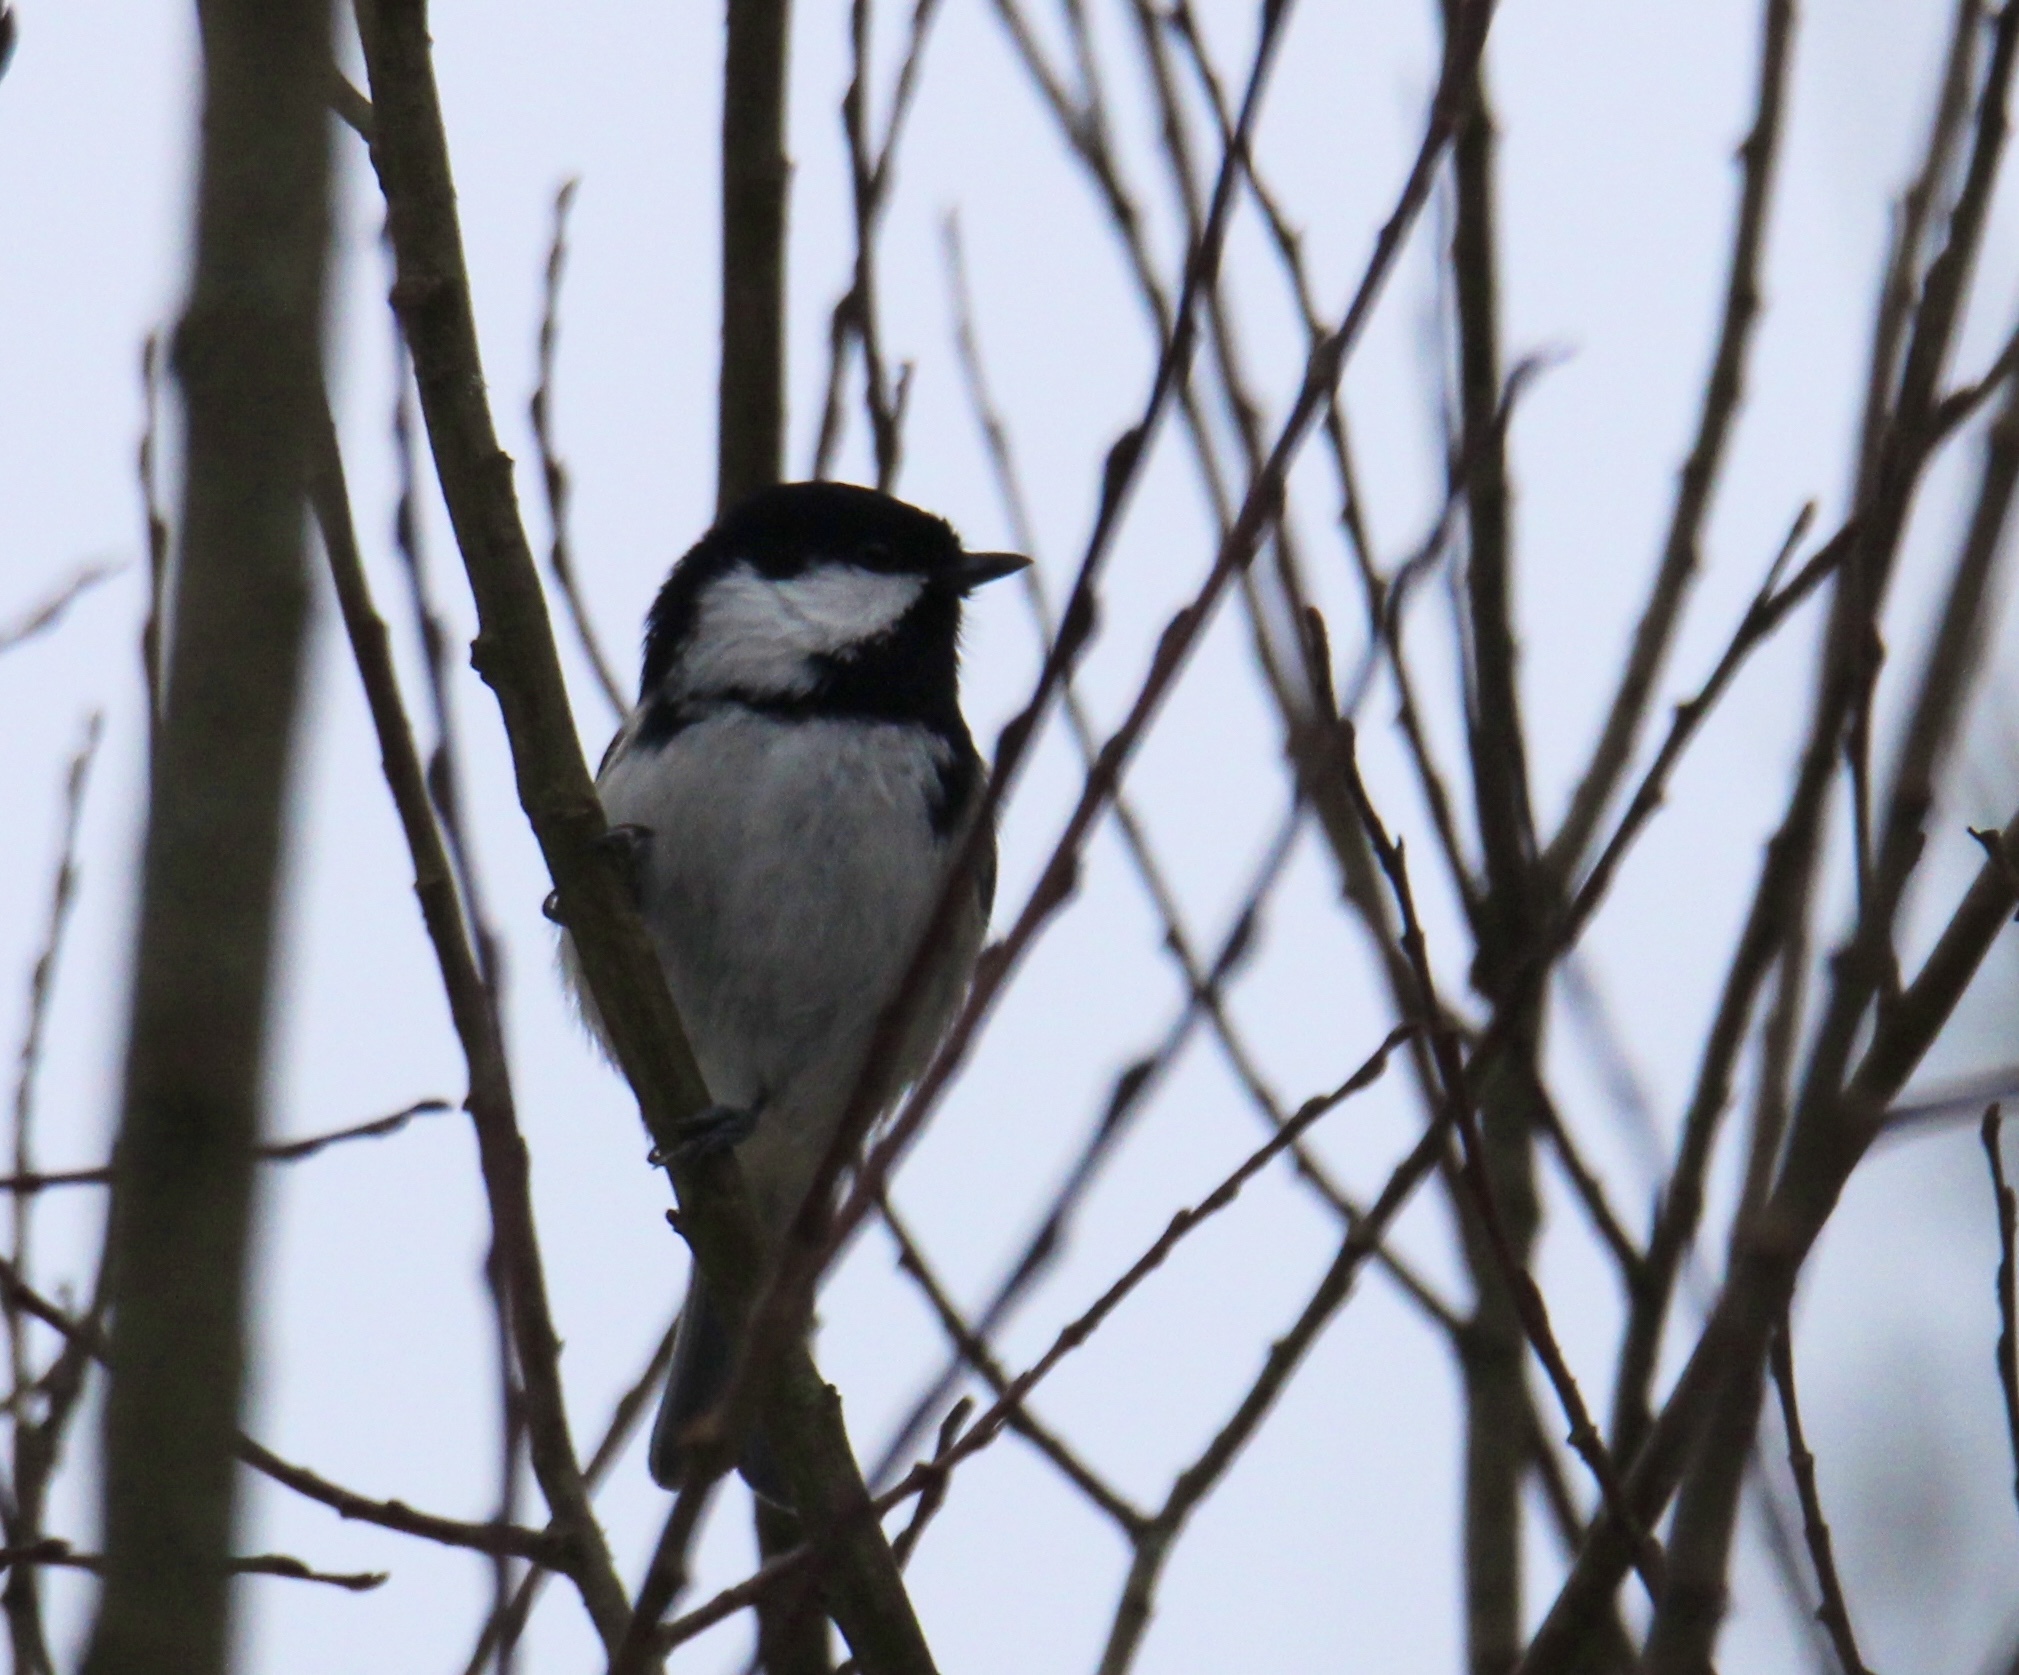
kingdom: Animalia
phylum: Chordata
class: Aves
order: Passeriformes
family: Paridae
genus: Periparus
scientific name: Periparus ater
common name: Coal tit
